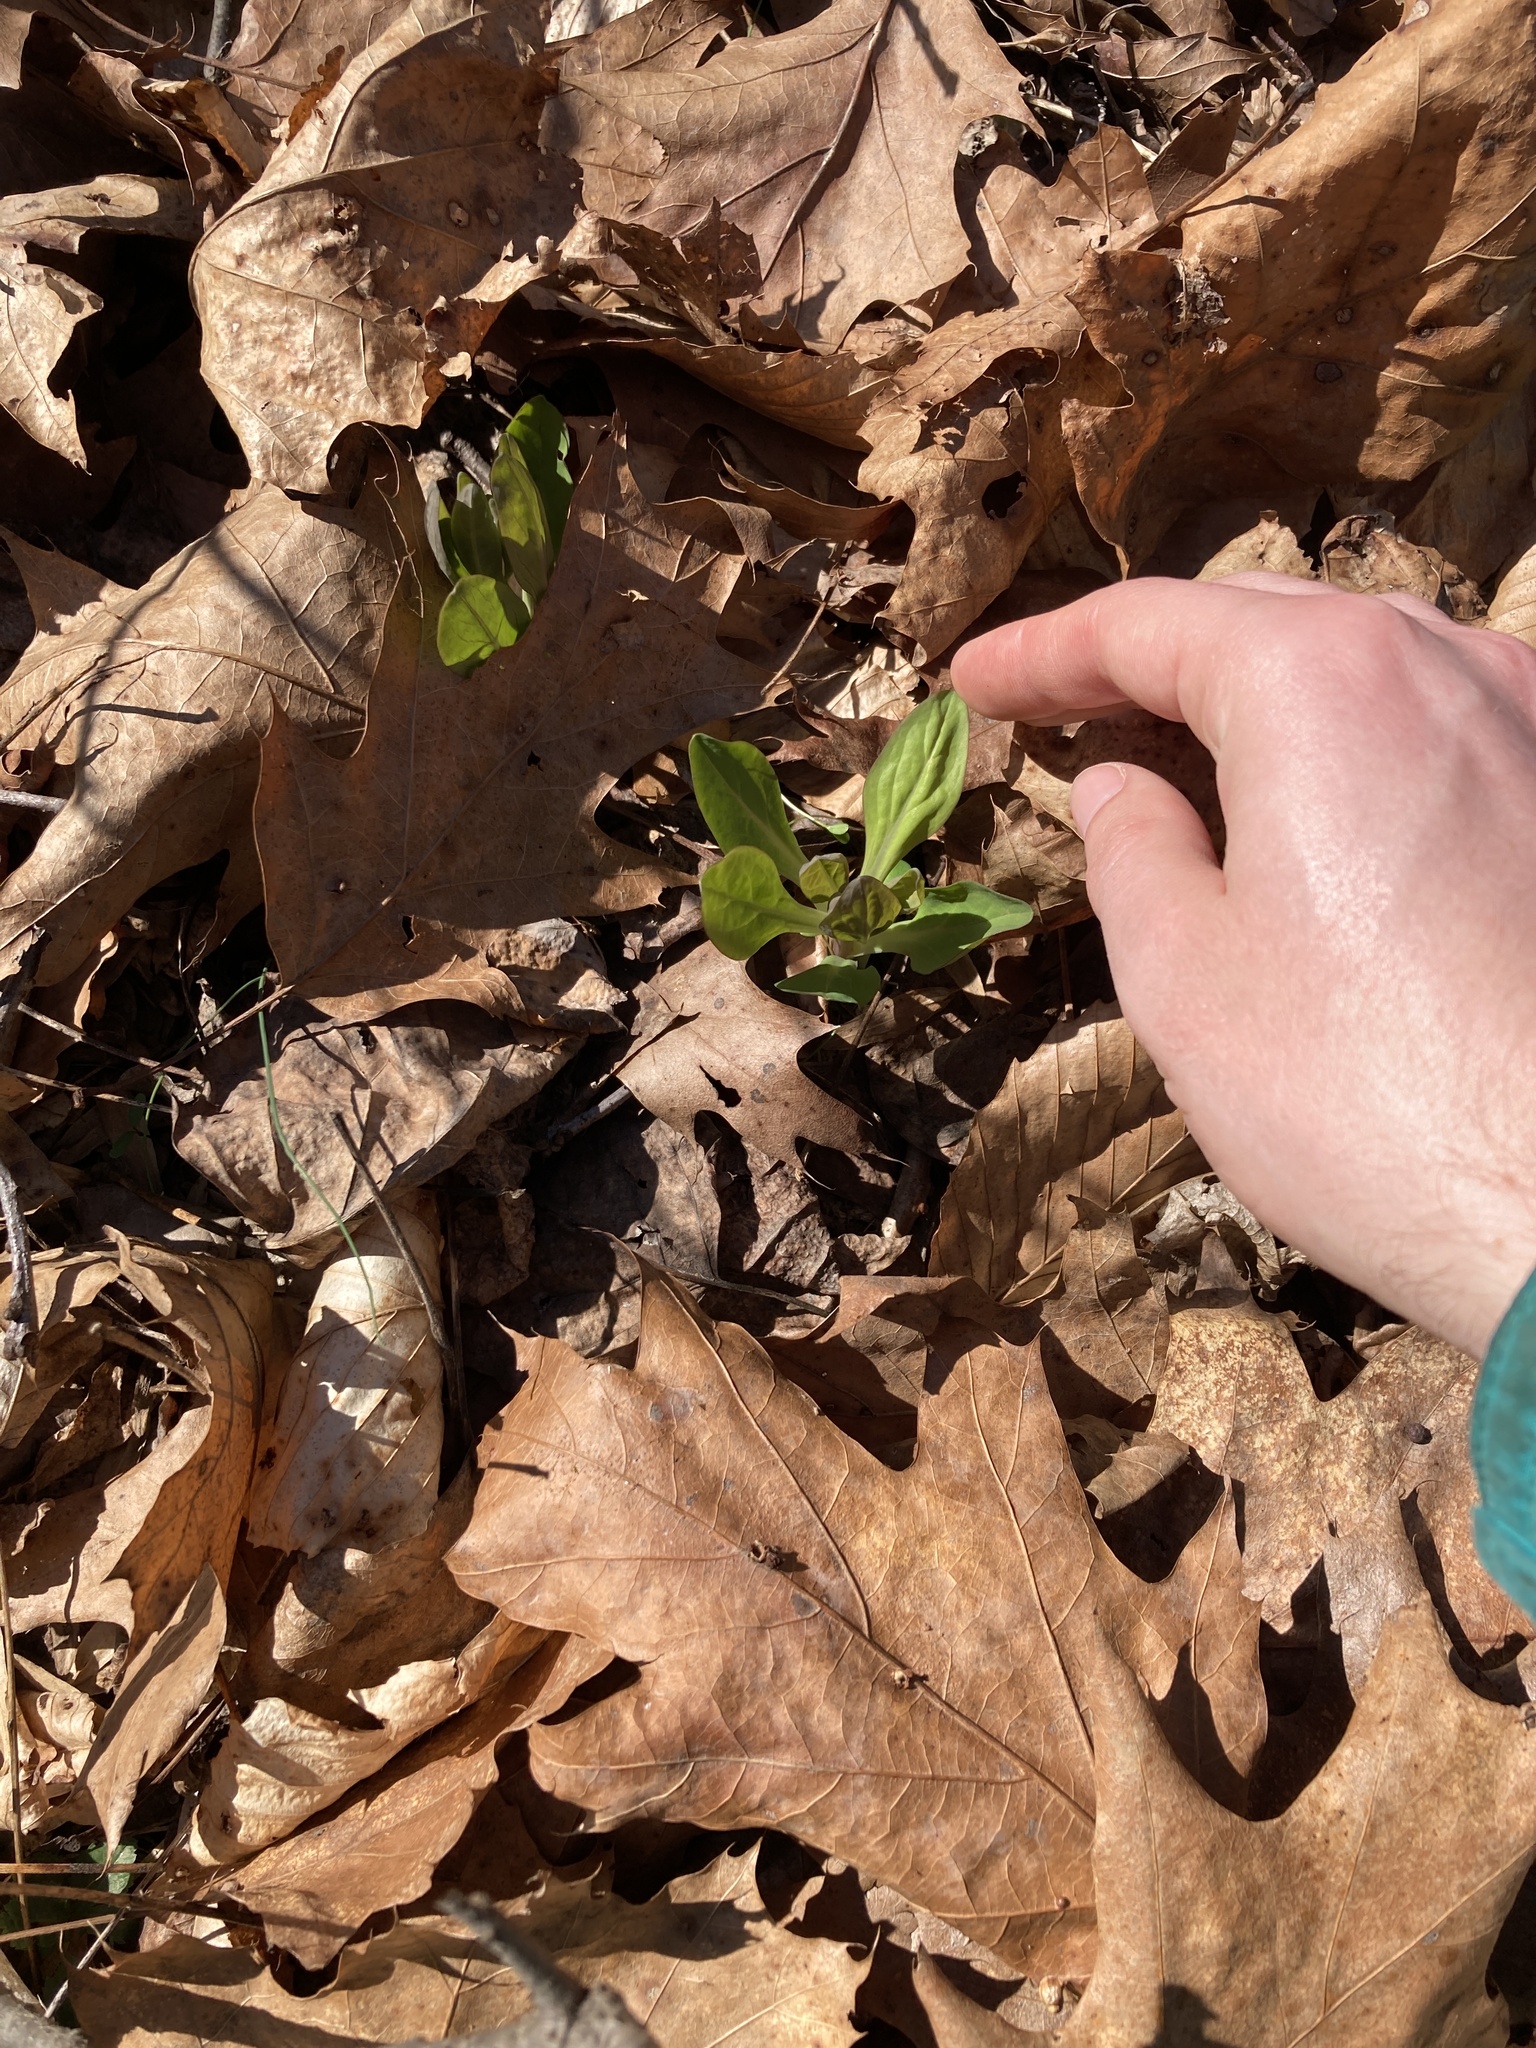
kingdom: Plantae
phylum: Tracheophyta
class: Magnoliopsida
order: Boraginales
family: Boraginaceae
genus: Mertensia
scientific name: Mertensia virginica
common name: Virginia bluebells
